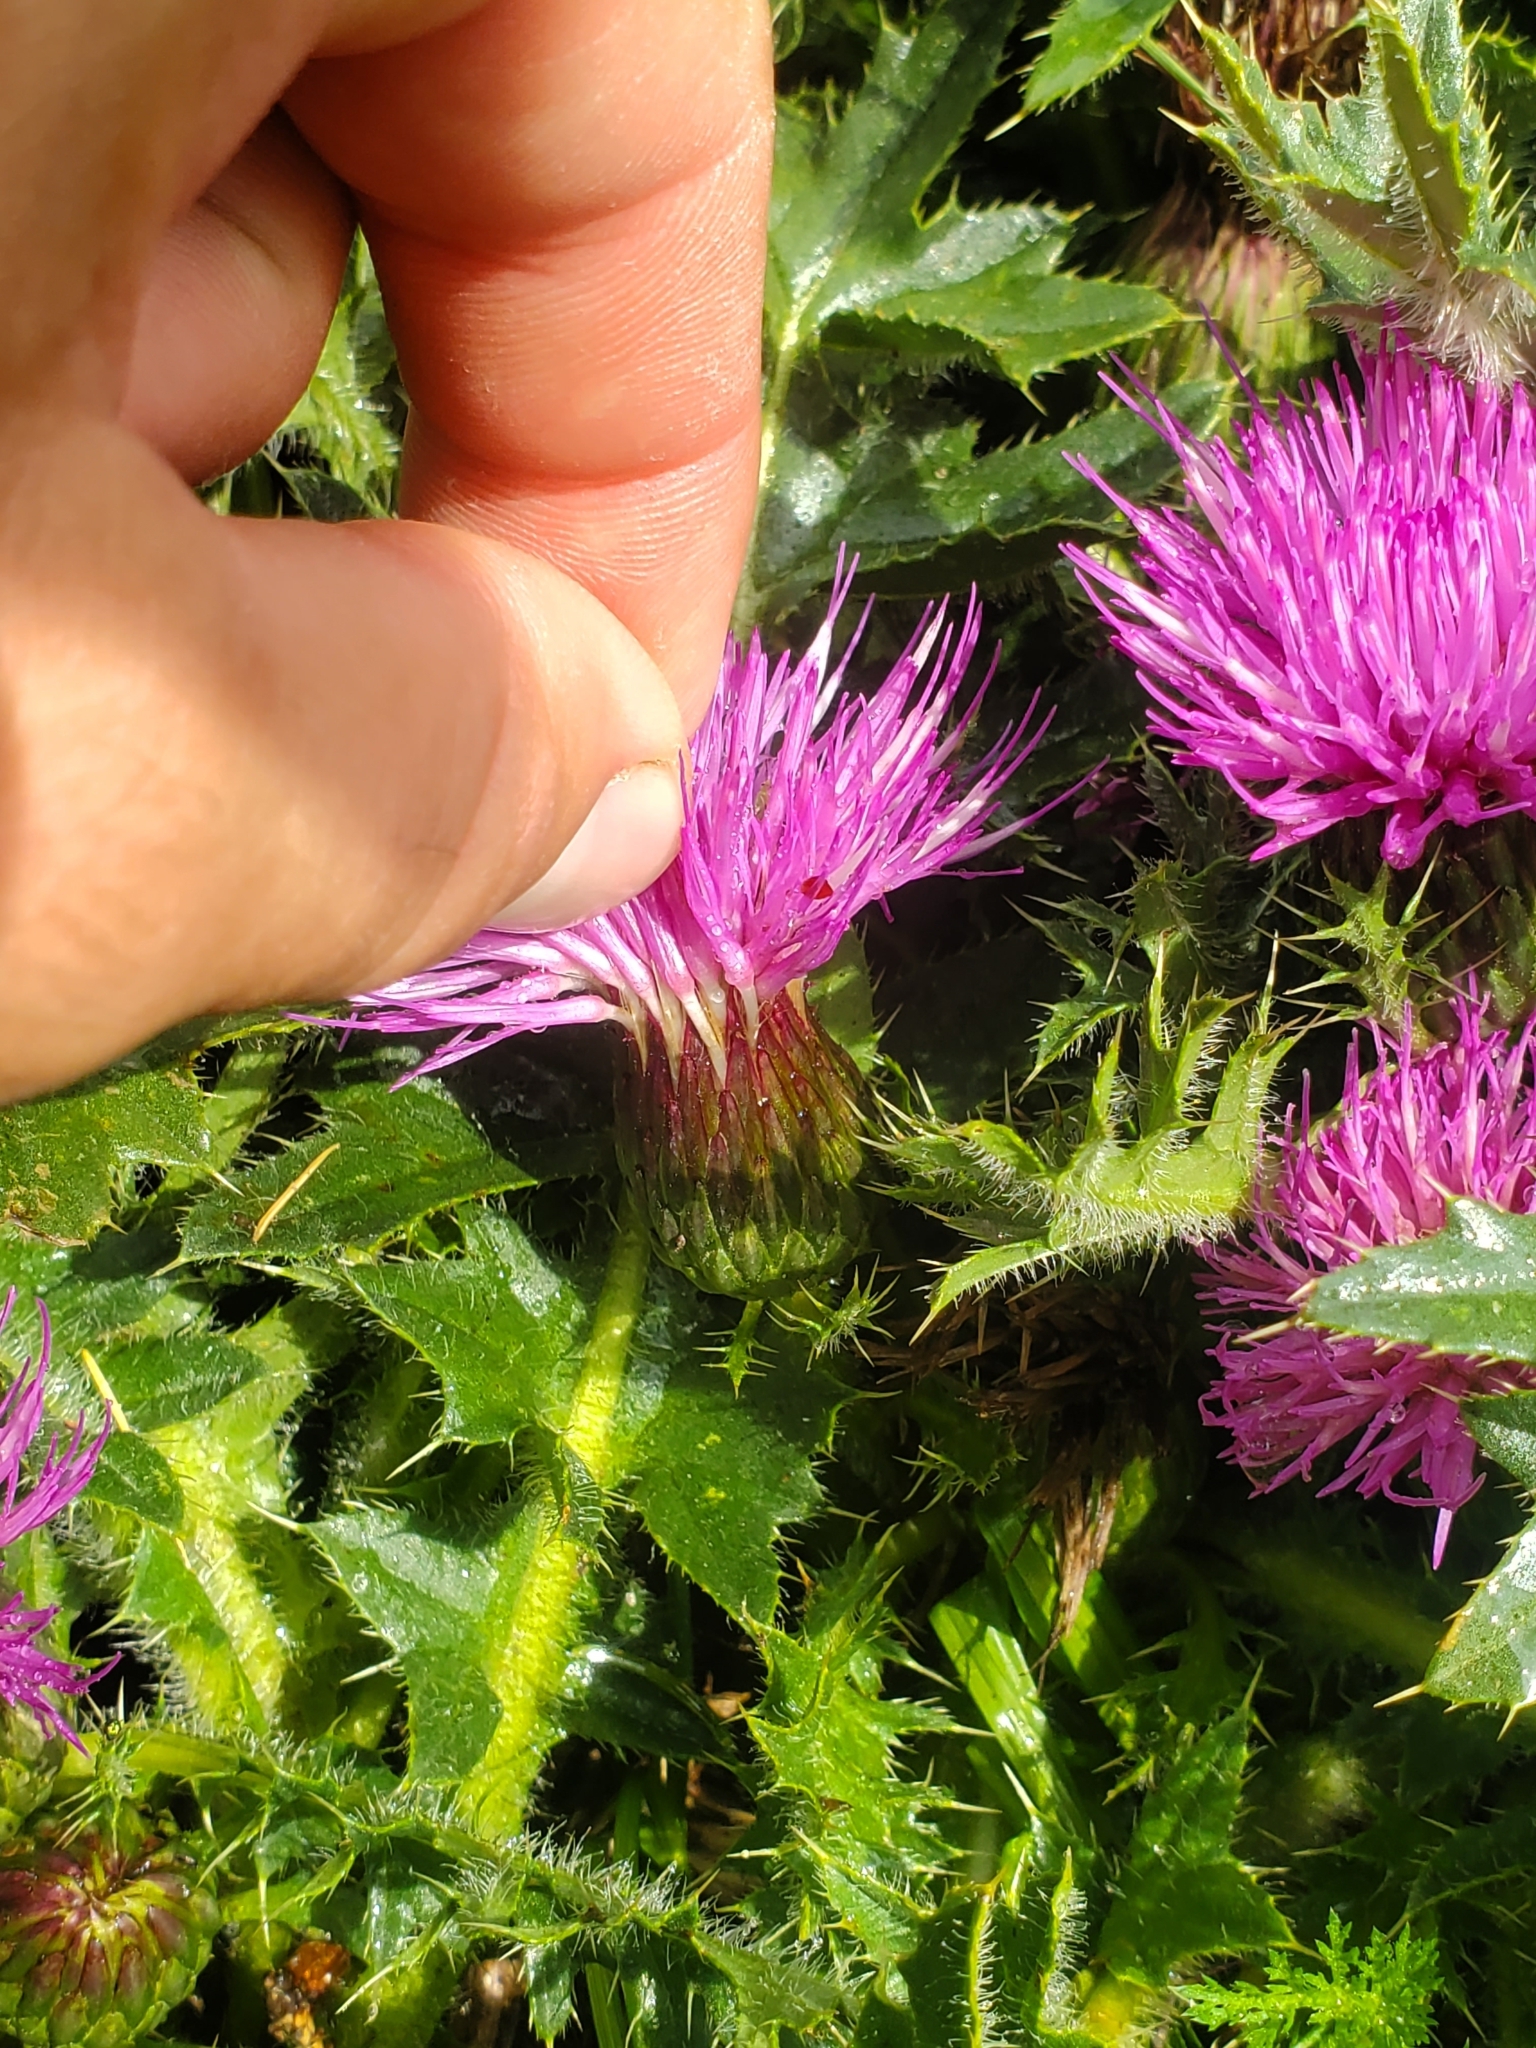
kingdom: Plantae
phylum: Tracheophyta
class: Magnoliopsida
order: Asterales
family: Asteraceae
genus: Cirsium
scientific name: Cirsium acaulon
